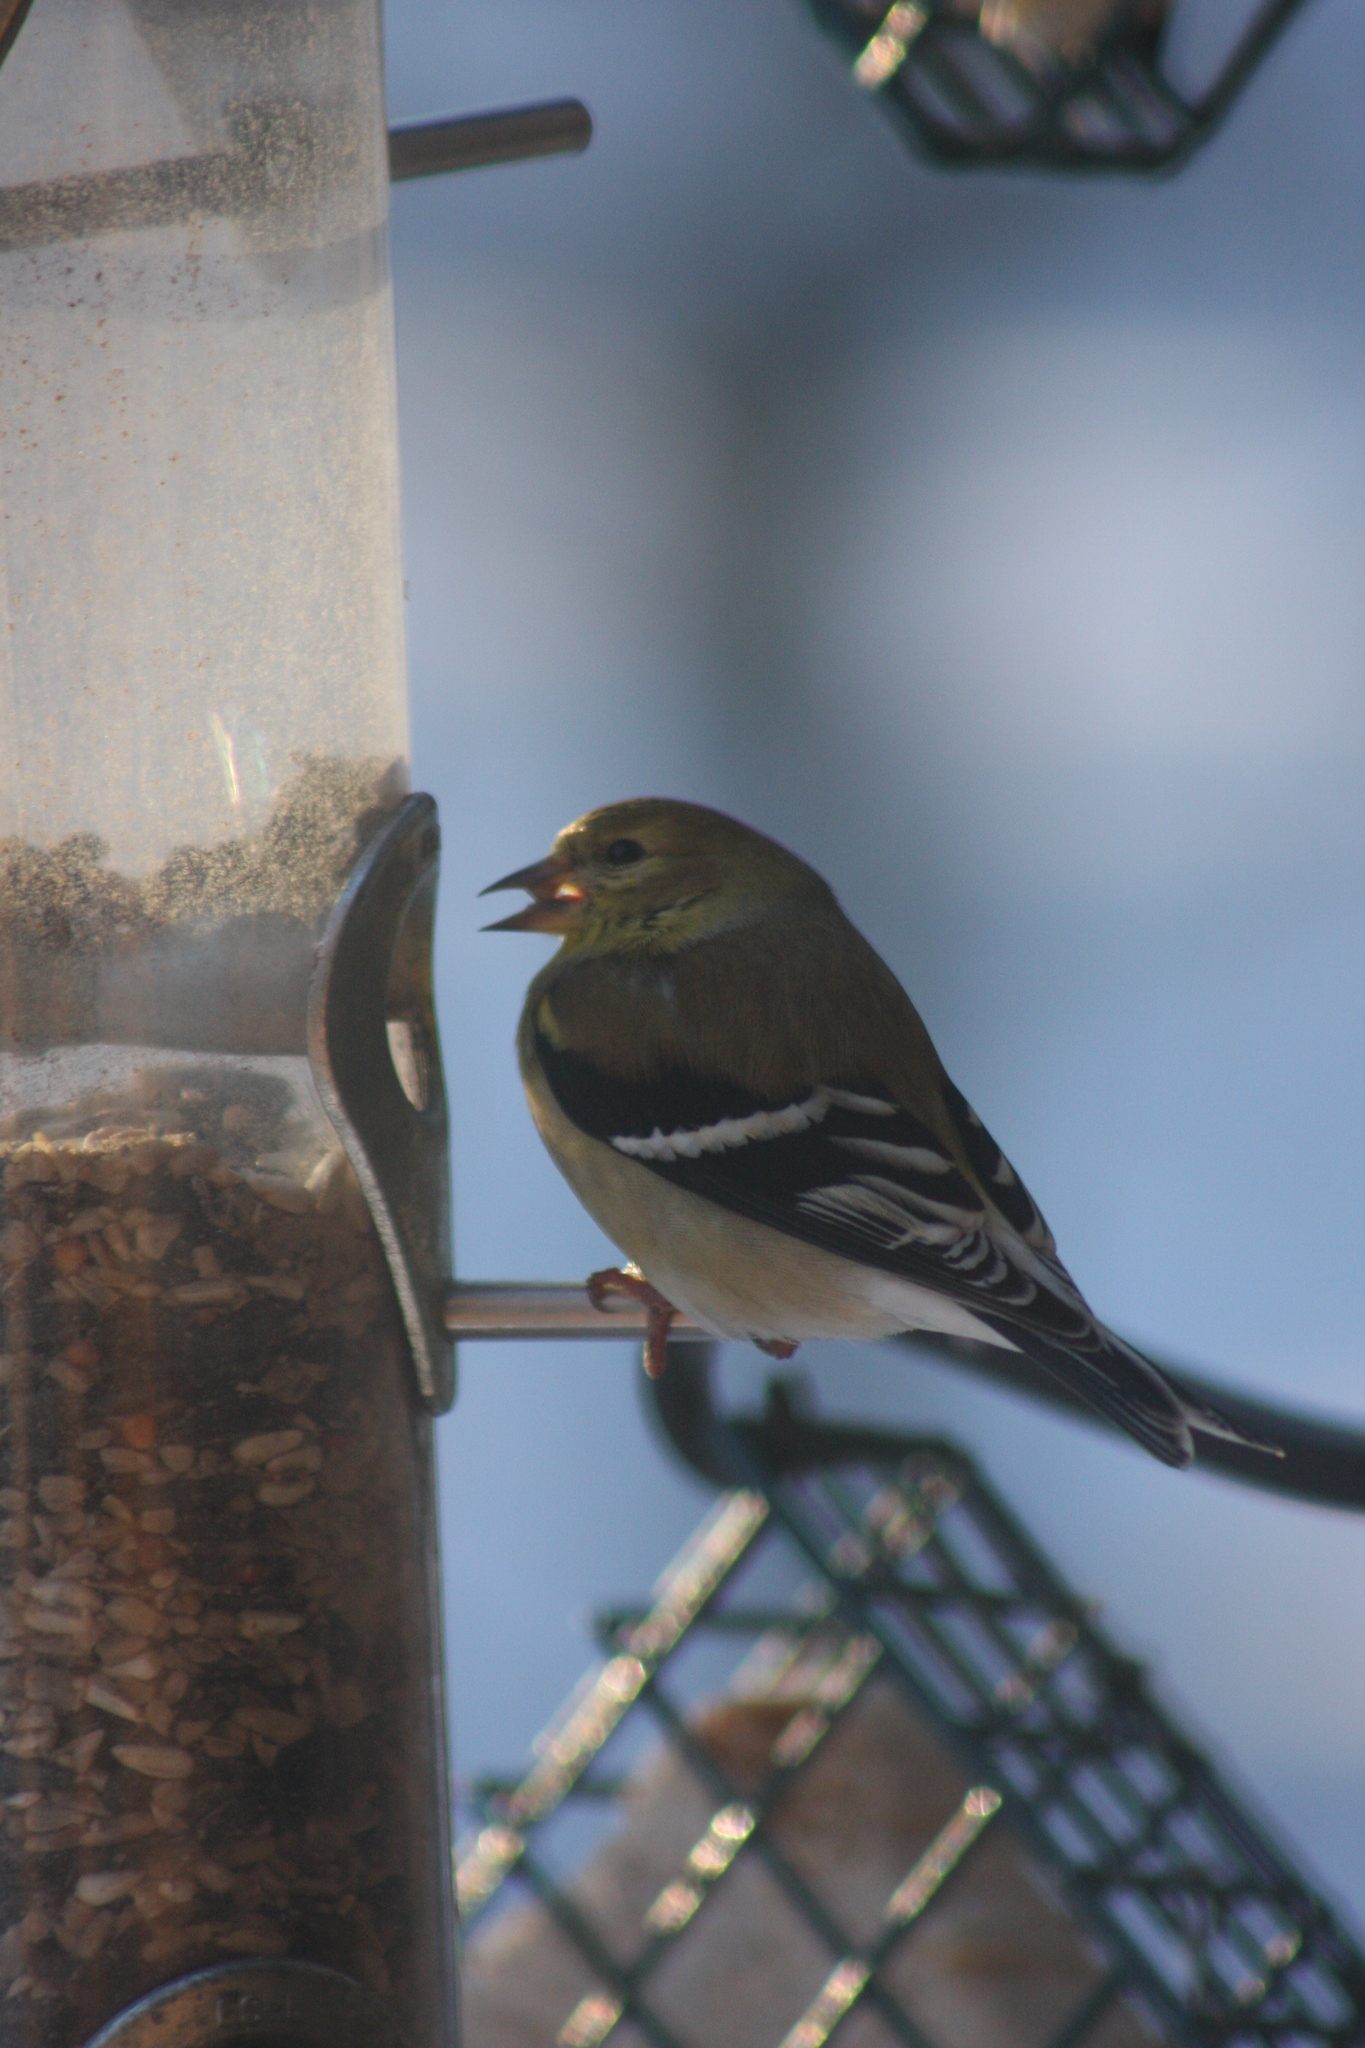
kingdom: Animalia
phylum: Chordata
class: Aves
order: Passeriformes
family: Fringillidae
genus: Spinus
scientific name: Spinus tristis
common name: American goldfinch
